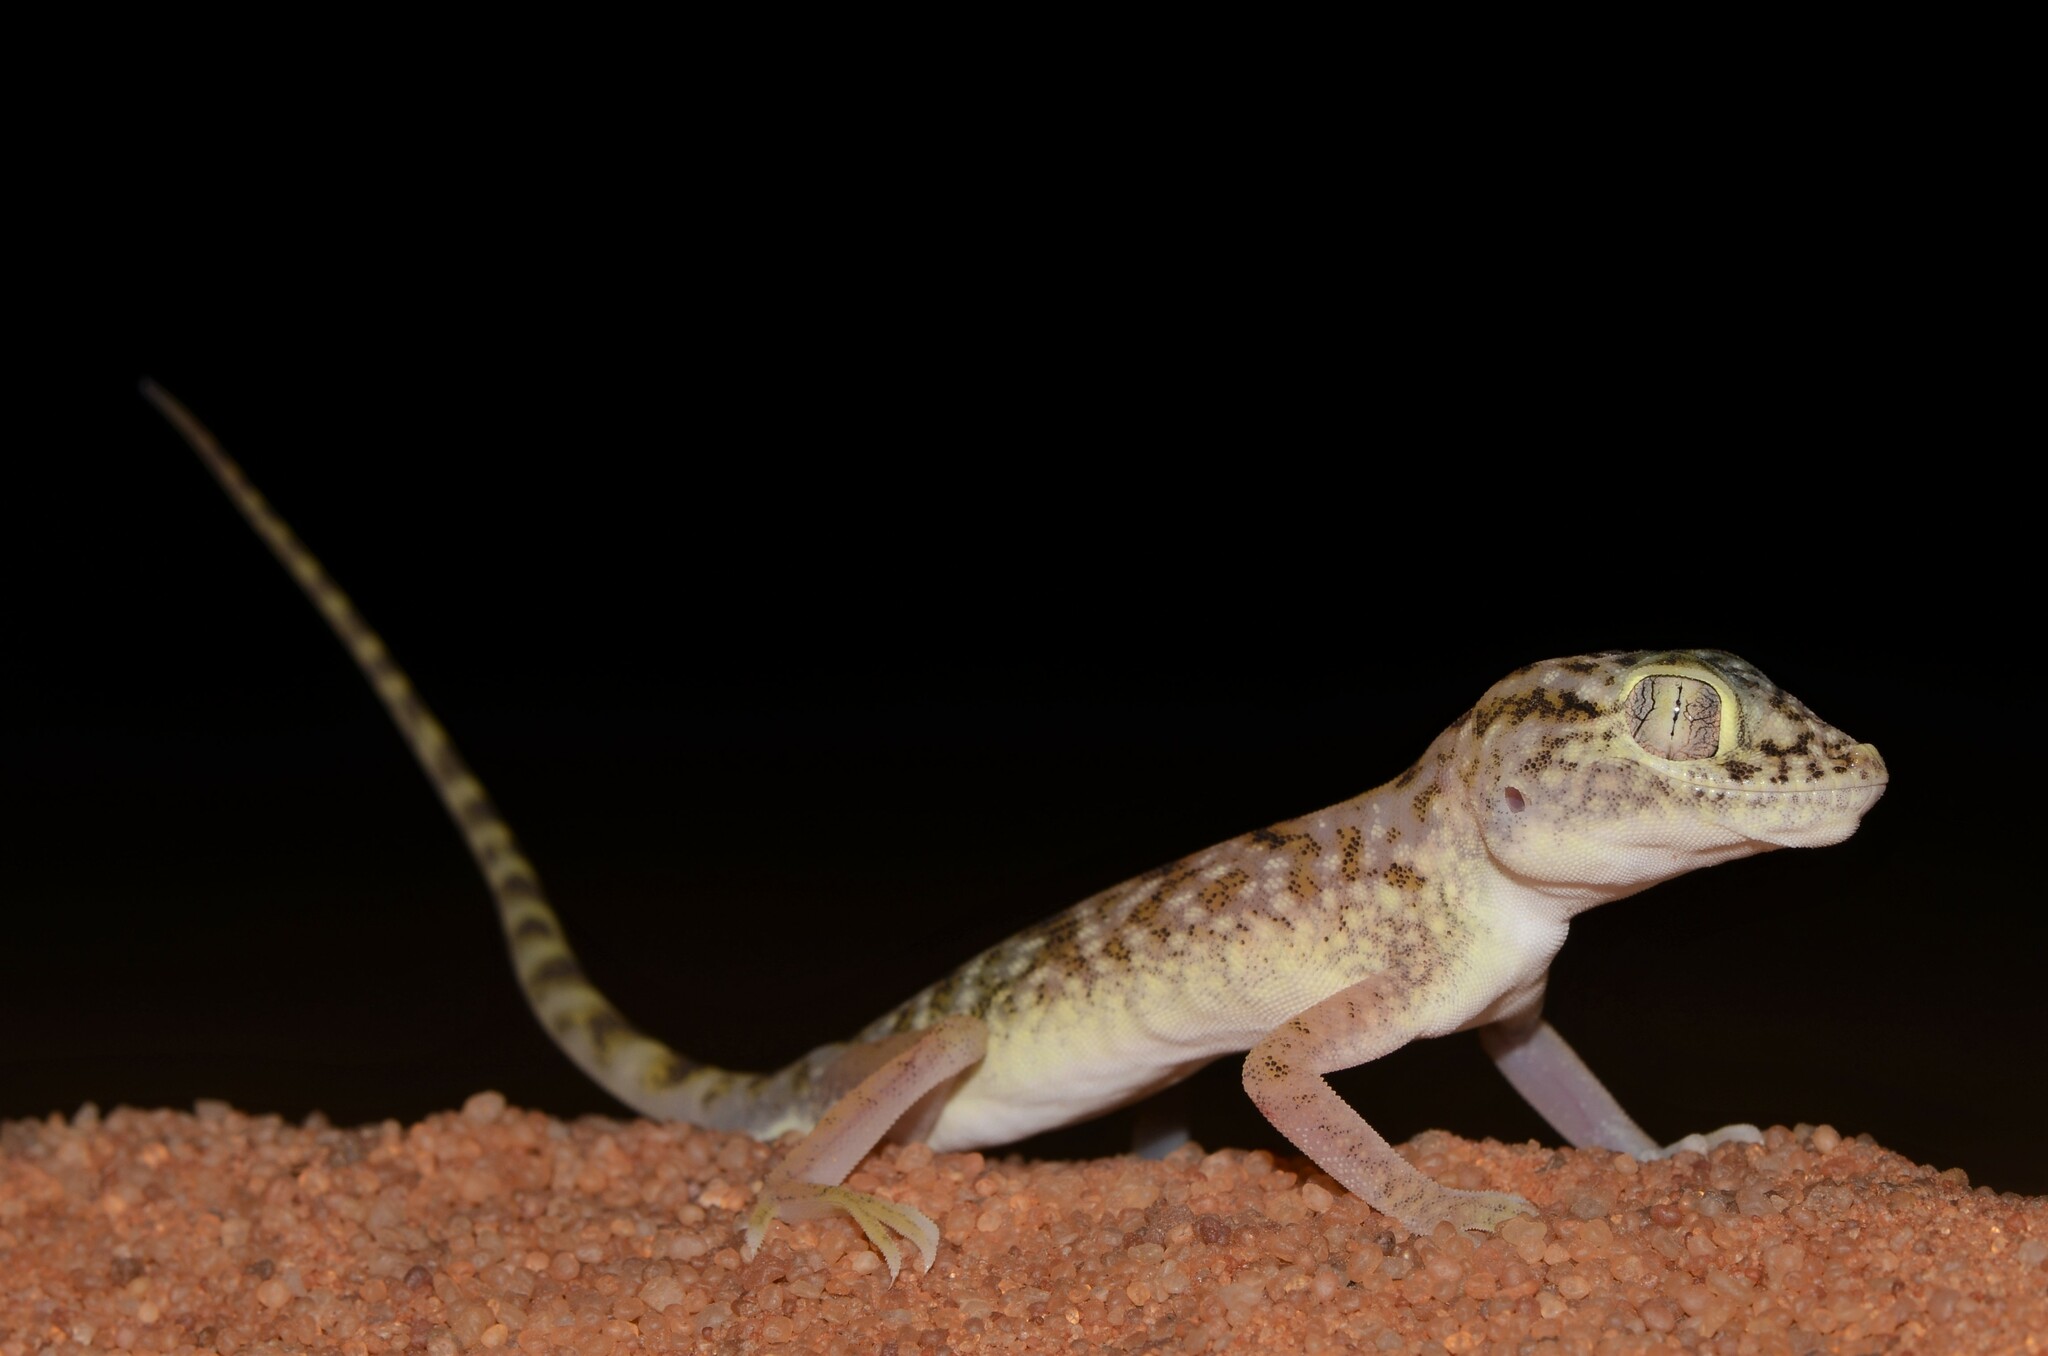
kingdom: Animalia
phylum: Chordata
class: Squamata
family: Gekkonidae
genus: Stenodactylus
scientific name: Stenodactylus doriae
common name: Dune sand gecko
